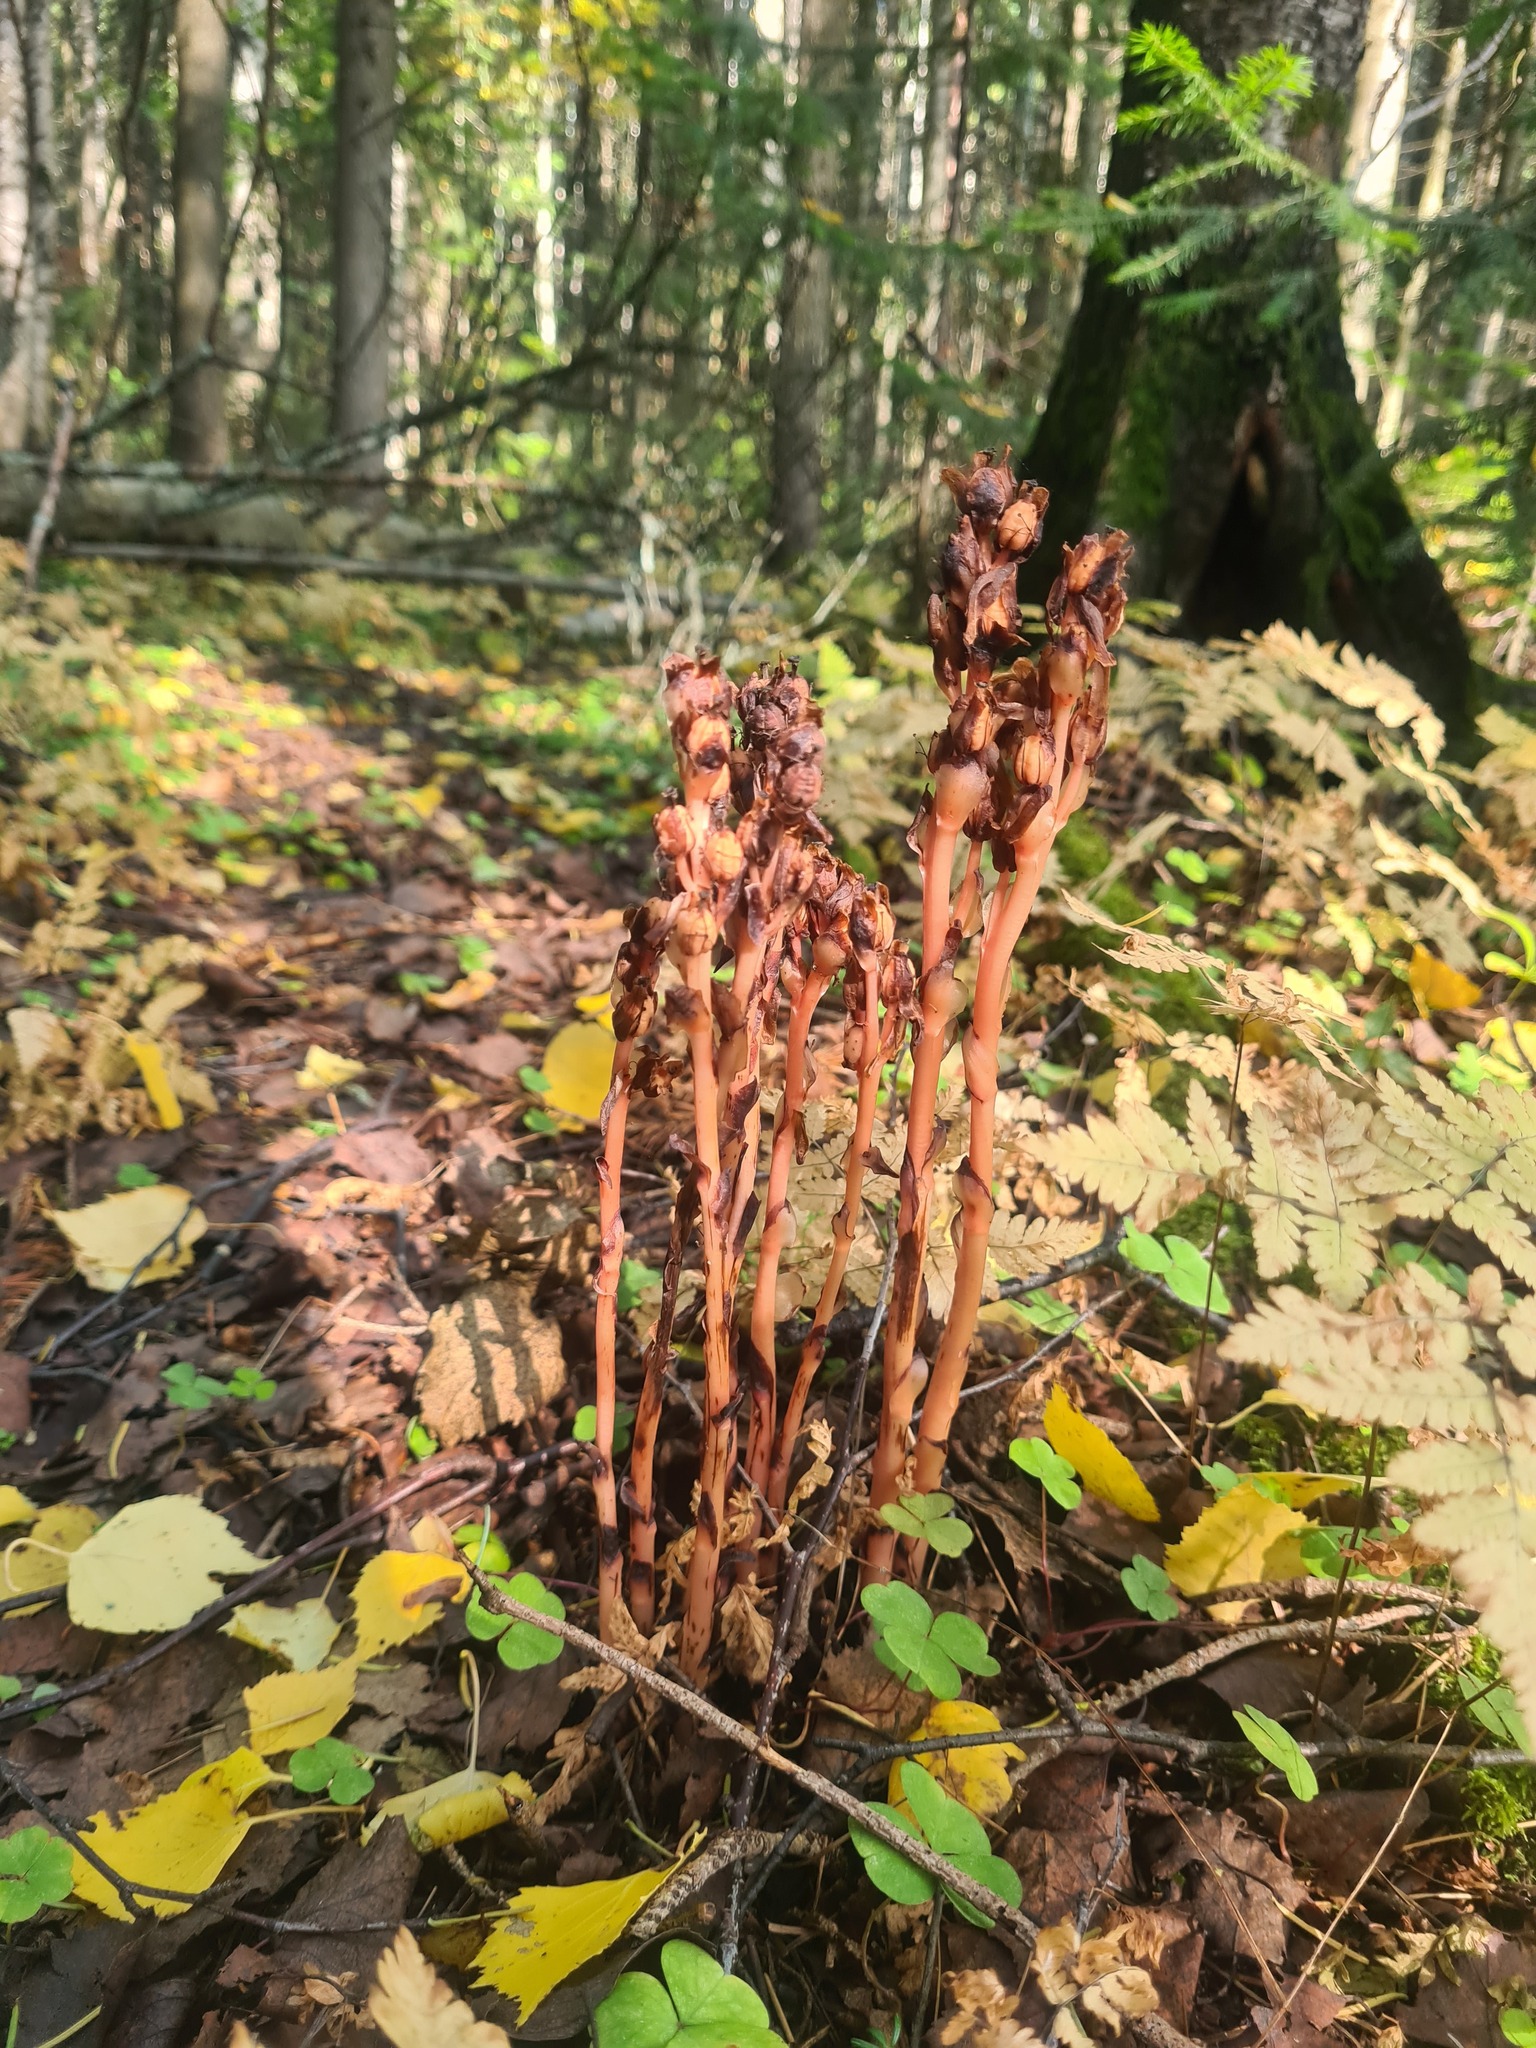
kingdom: Plantae
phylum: Tracheophyta
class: Magnoliopsida
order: Ericales
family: Ericaceae
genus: Hypopitys
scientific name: Hypopitys monotropa
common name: Yellow bird's-nest
